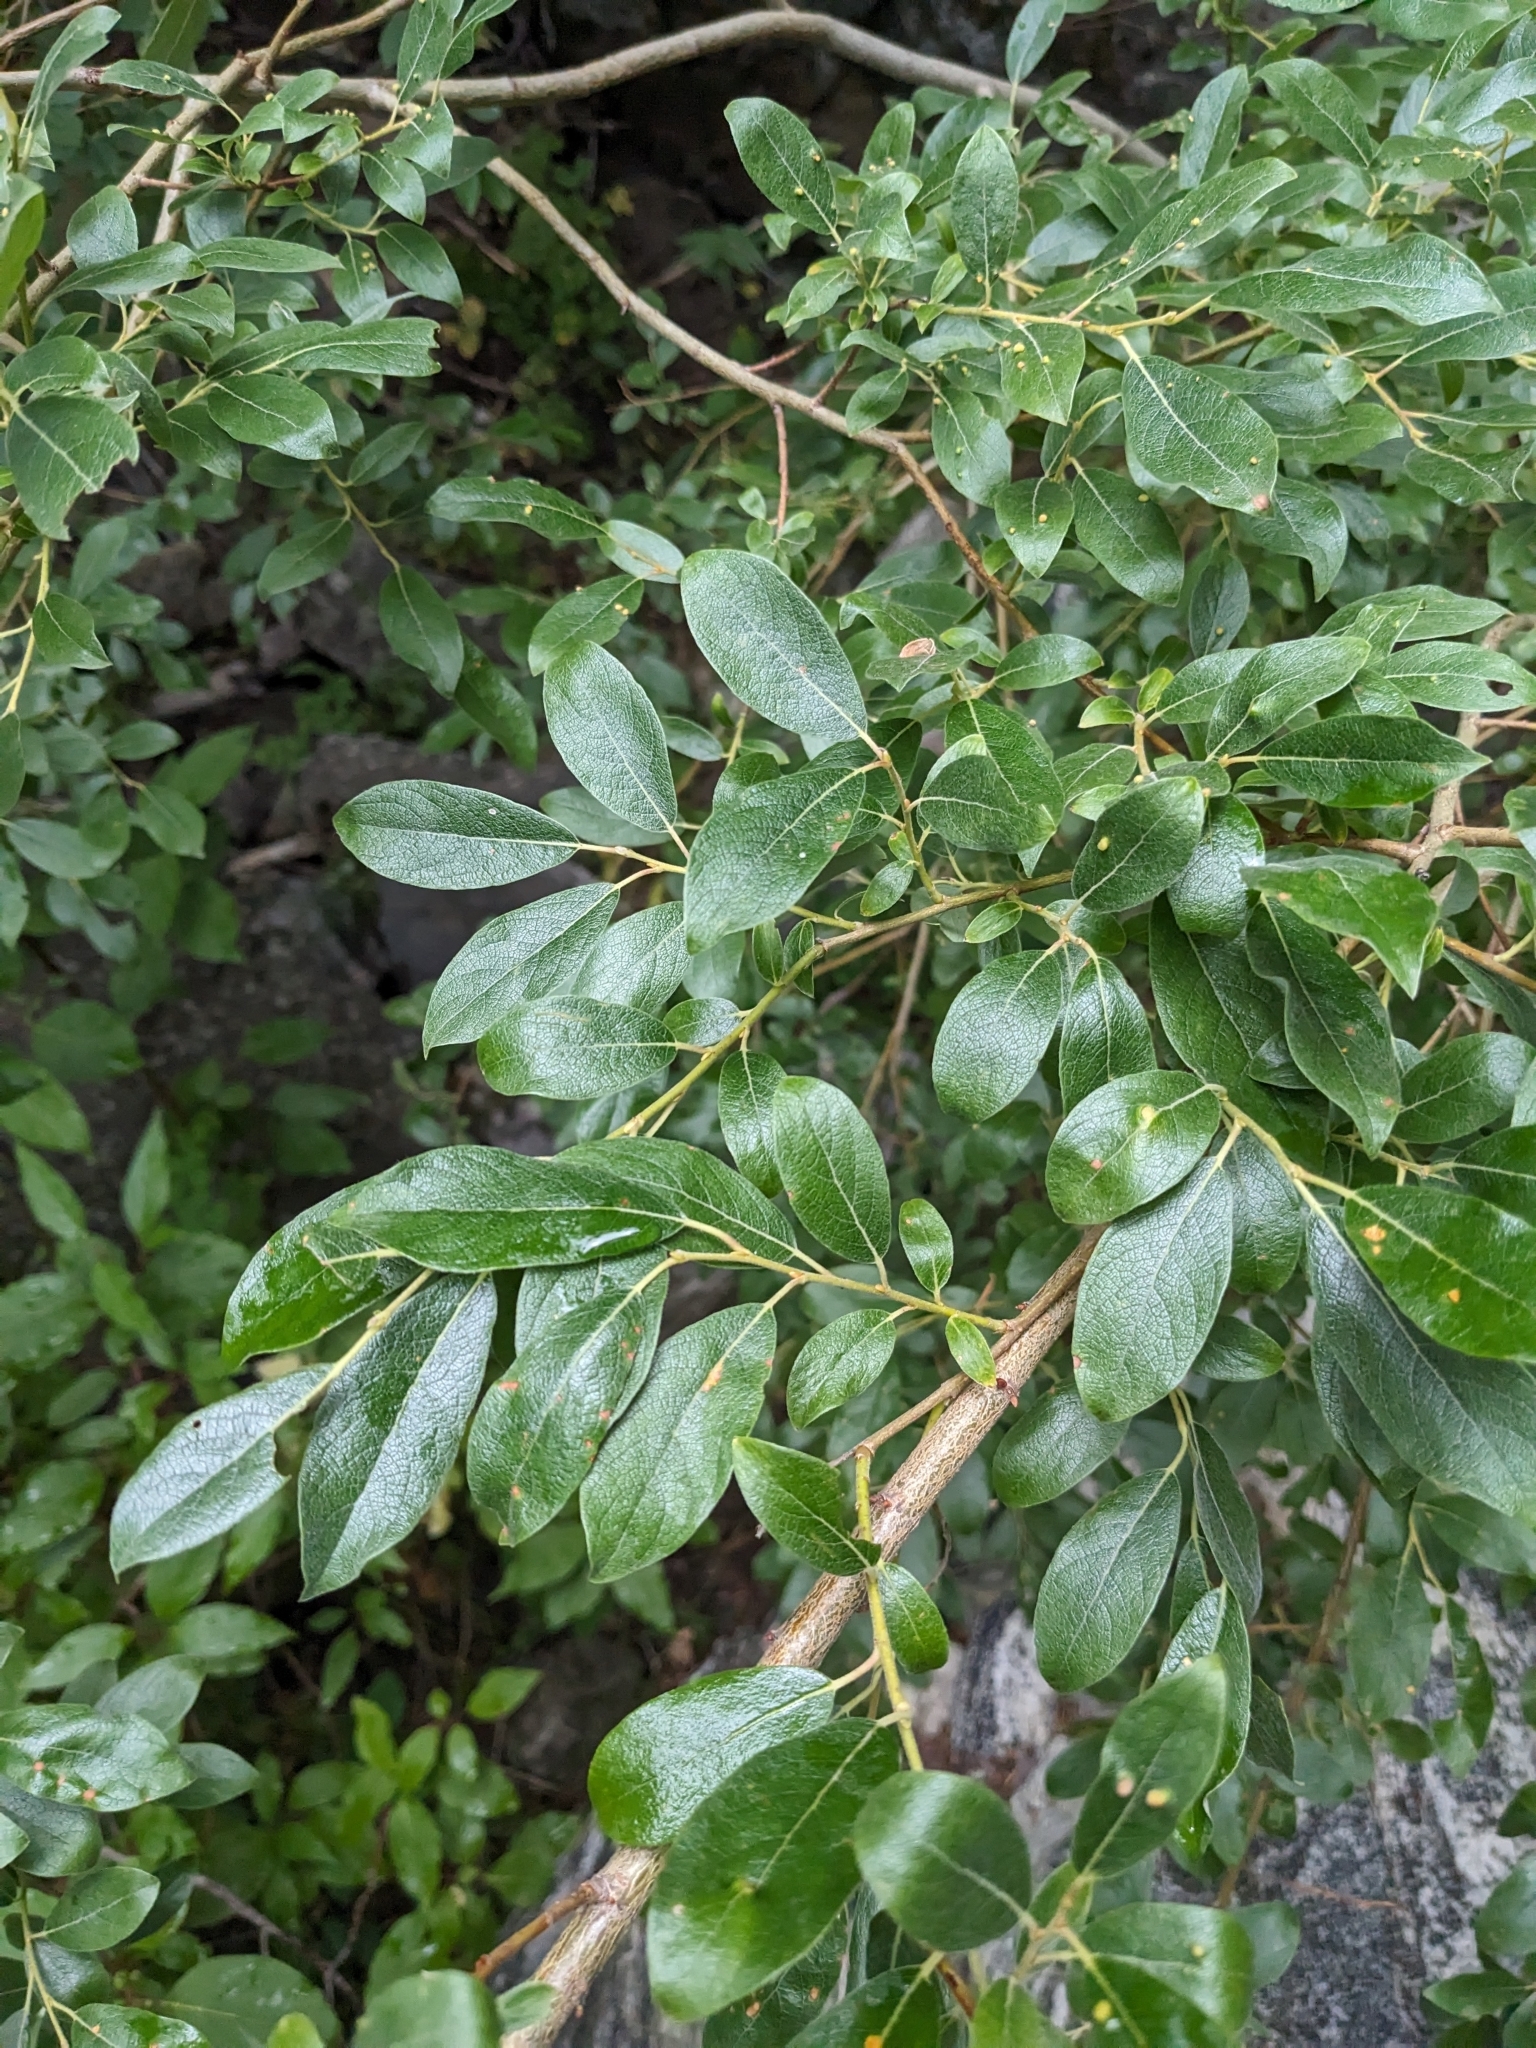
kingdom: Plantae
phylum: Tracheophyta
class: Magnoliopsida
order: Malpighiales
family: Salicaceae
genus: Salix
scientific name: Salix bebbiana
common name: Bebb's willow
